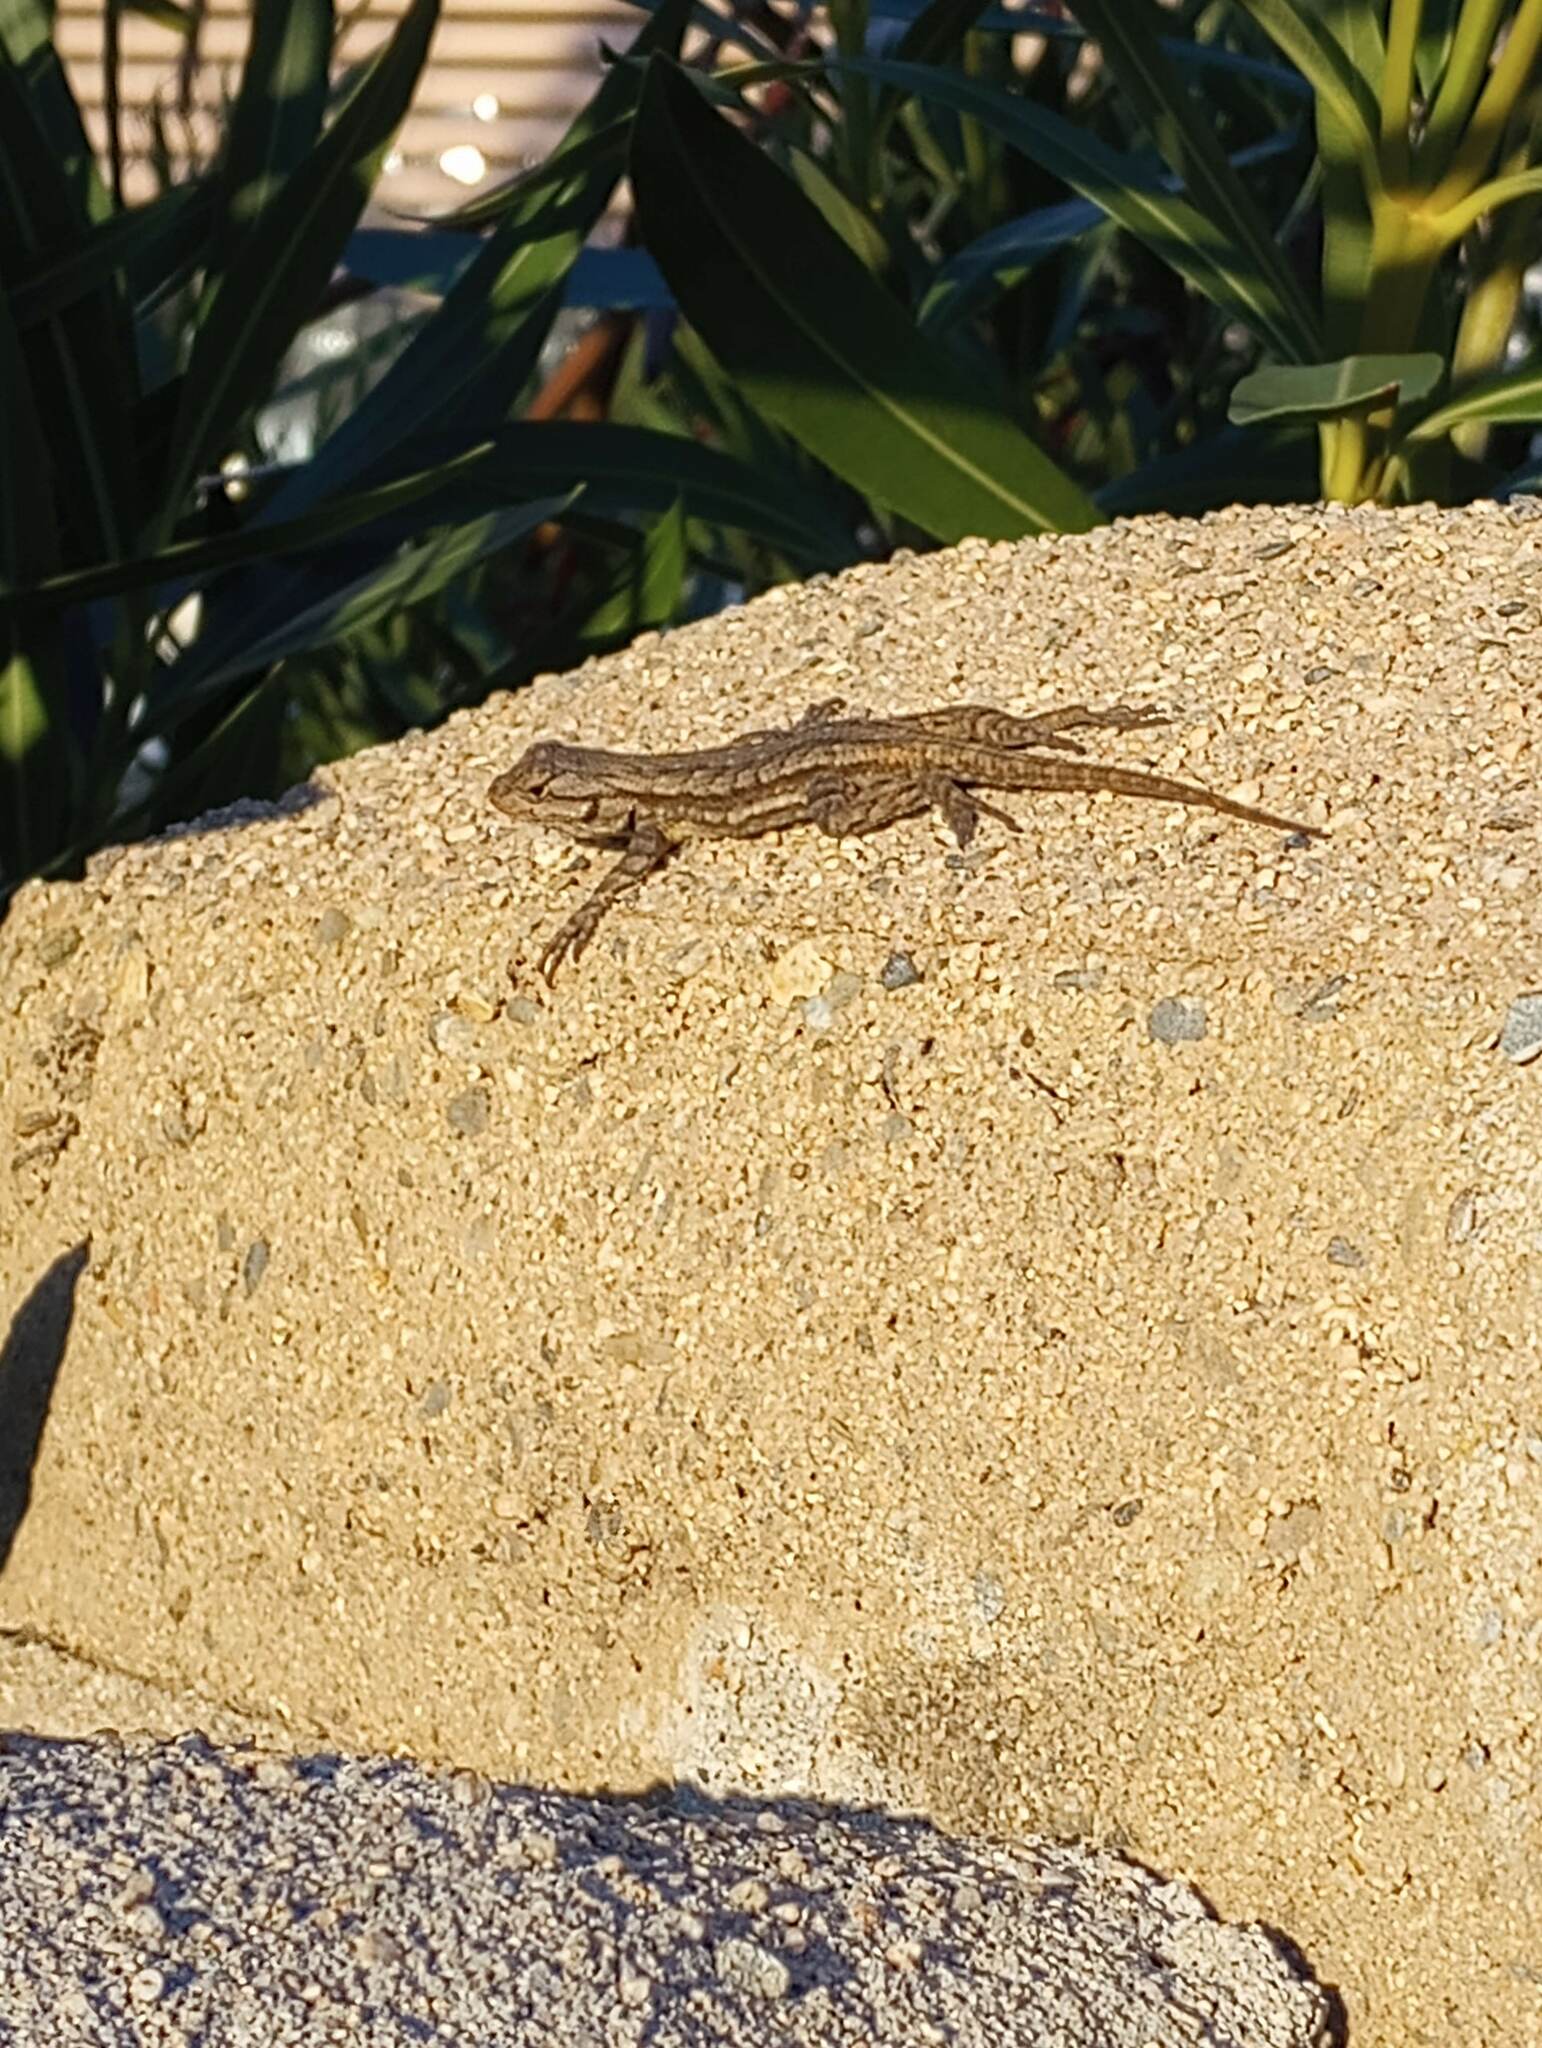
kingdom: Animalia
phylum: Chordata
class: Squamata
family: Phrynosomatidae
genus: Sceloporus
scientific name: Sceloporus occidentalis
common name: Western fence lizard
